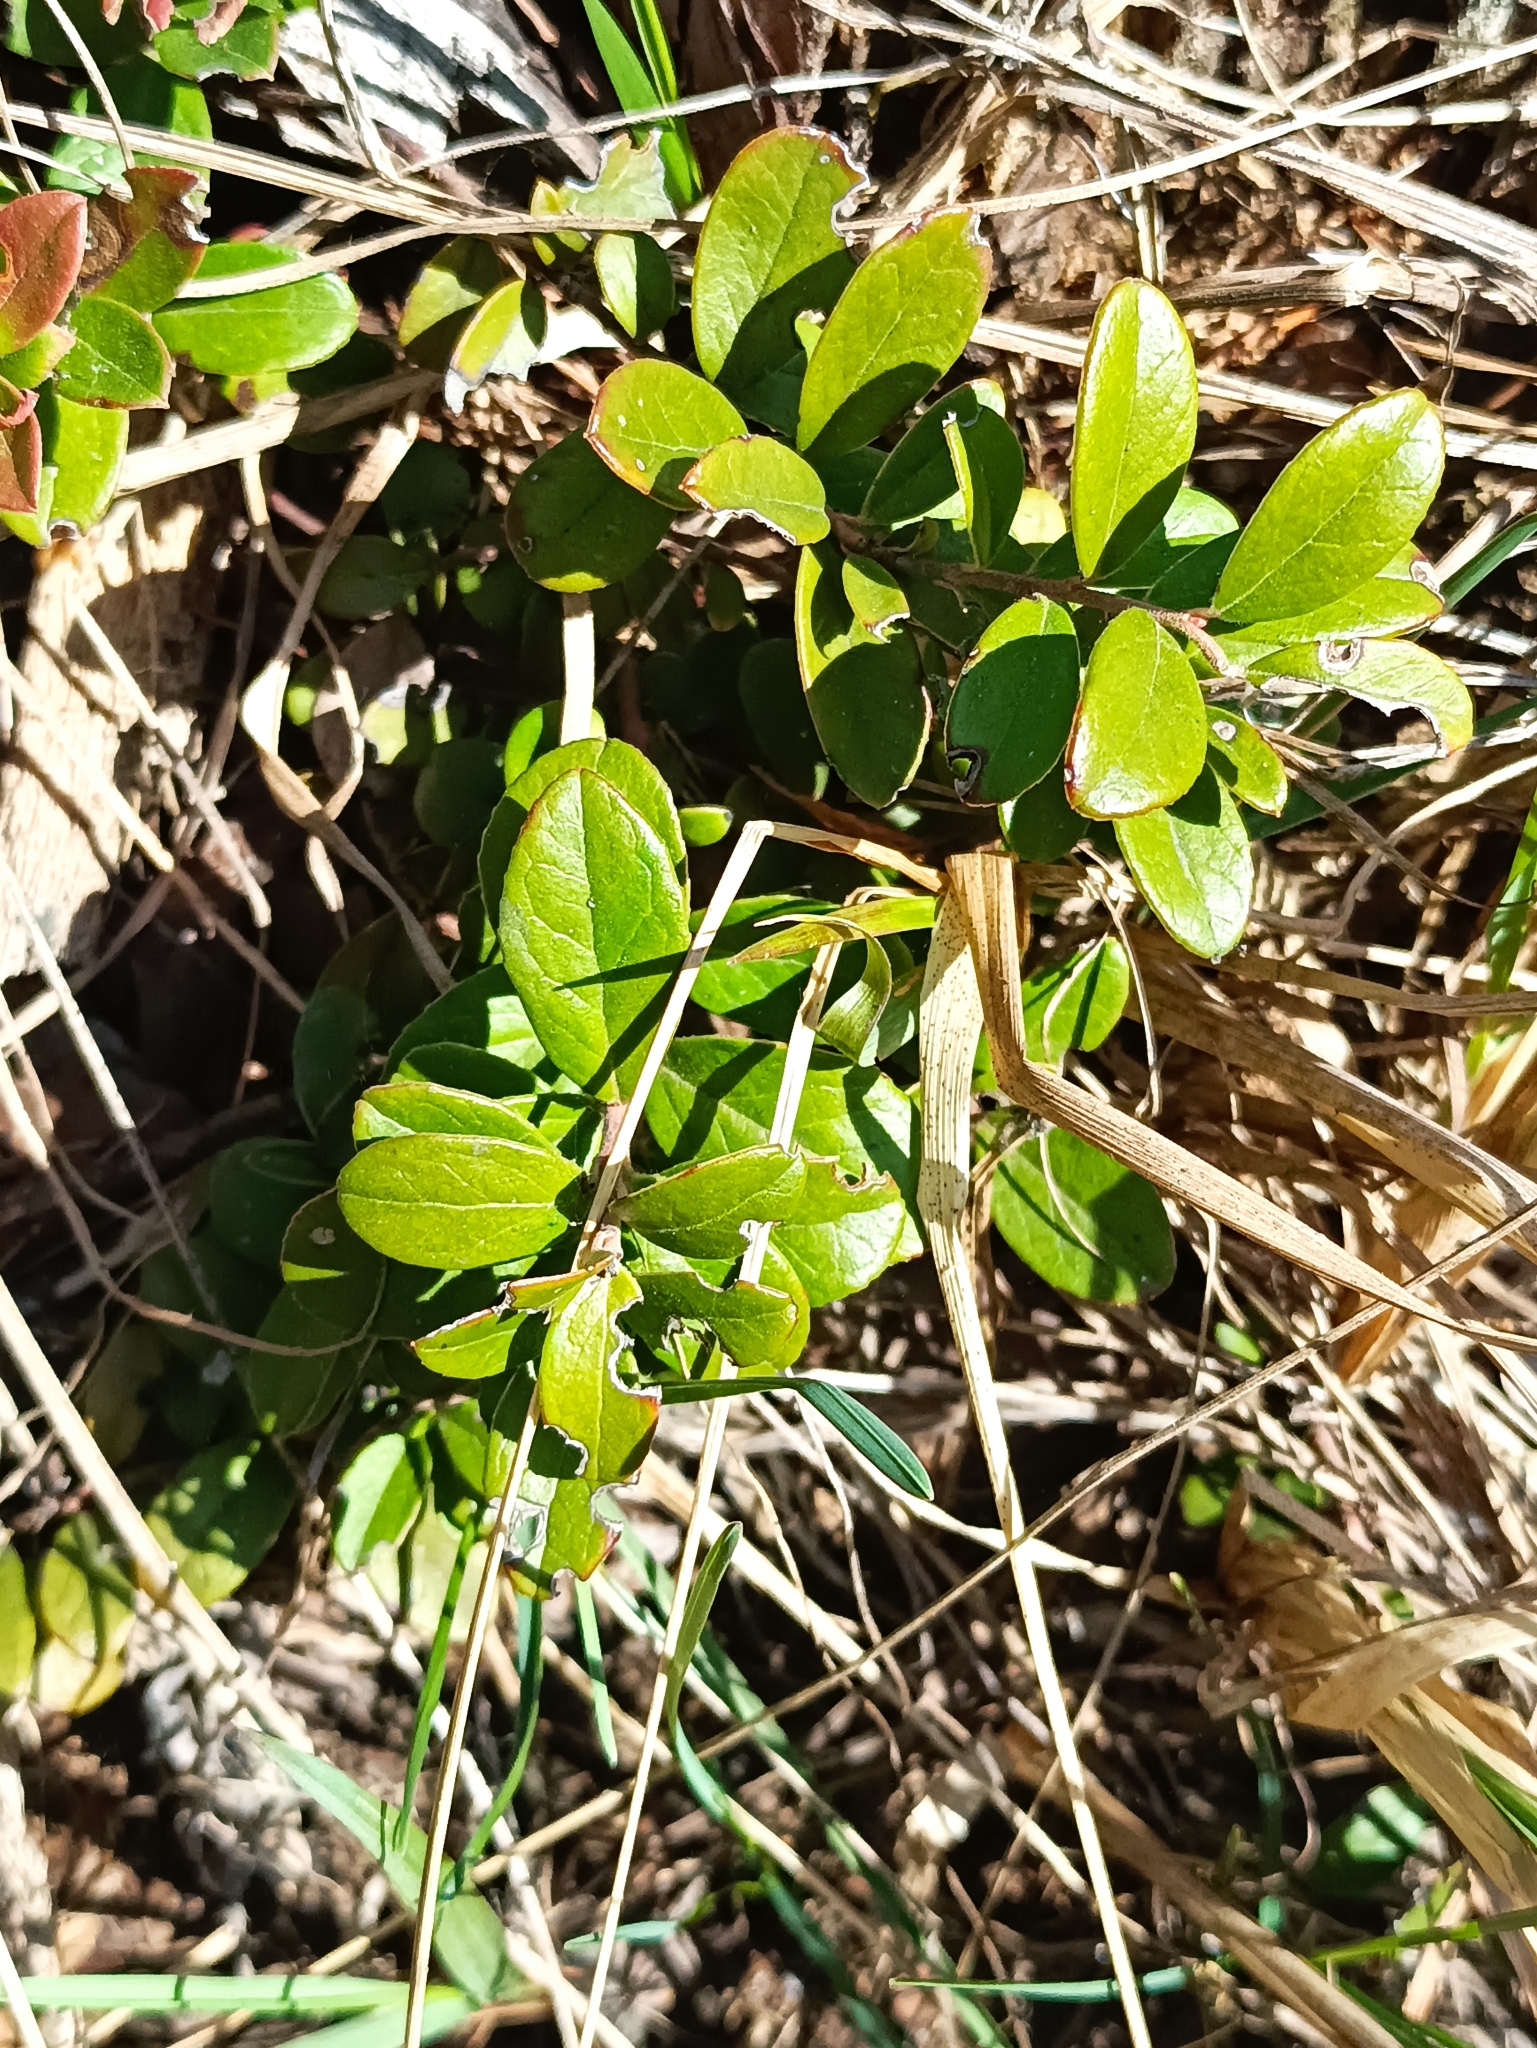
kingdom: Plantae
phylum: Tracheophyta
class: Magnoliopsida
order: Ericales
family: Ericaceae
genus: Vaccinium
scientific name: Vaccinium vitis-idaea
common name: Cowberry
